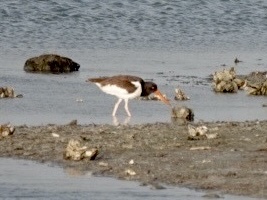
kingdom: Animalia
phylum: Chordata
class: Aves
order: Charadriiformes
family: Haematopodidae
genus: Haematopus
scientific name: Haematopus palliatus
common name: American oystercatcher
